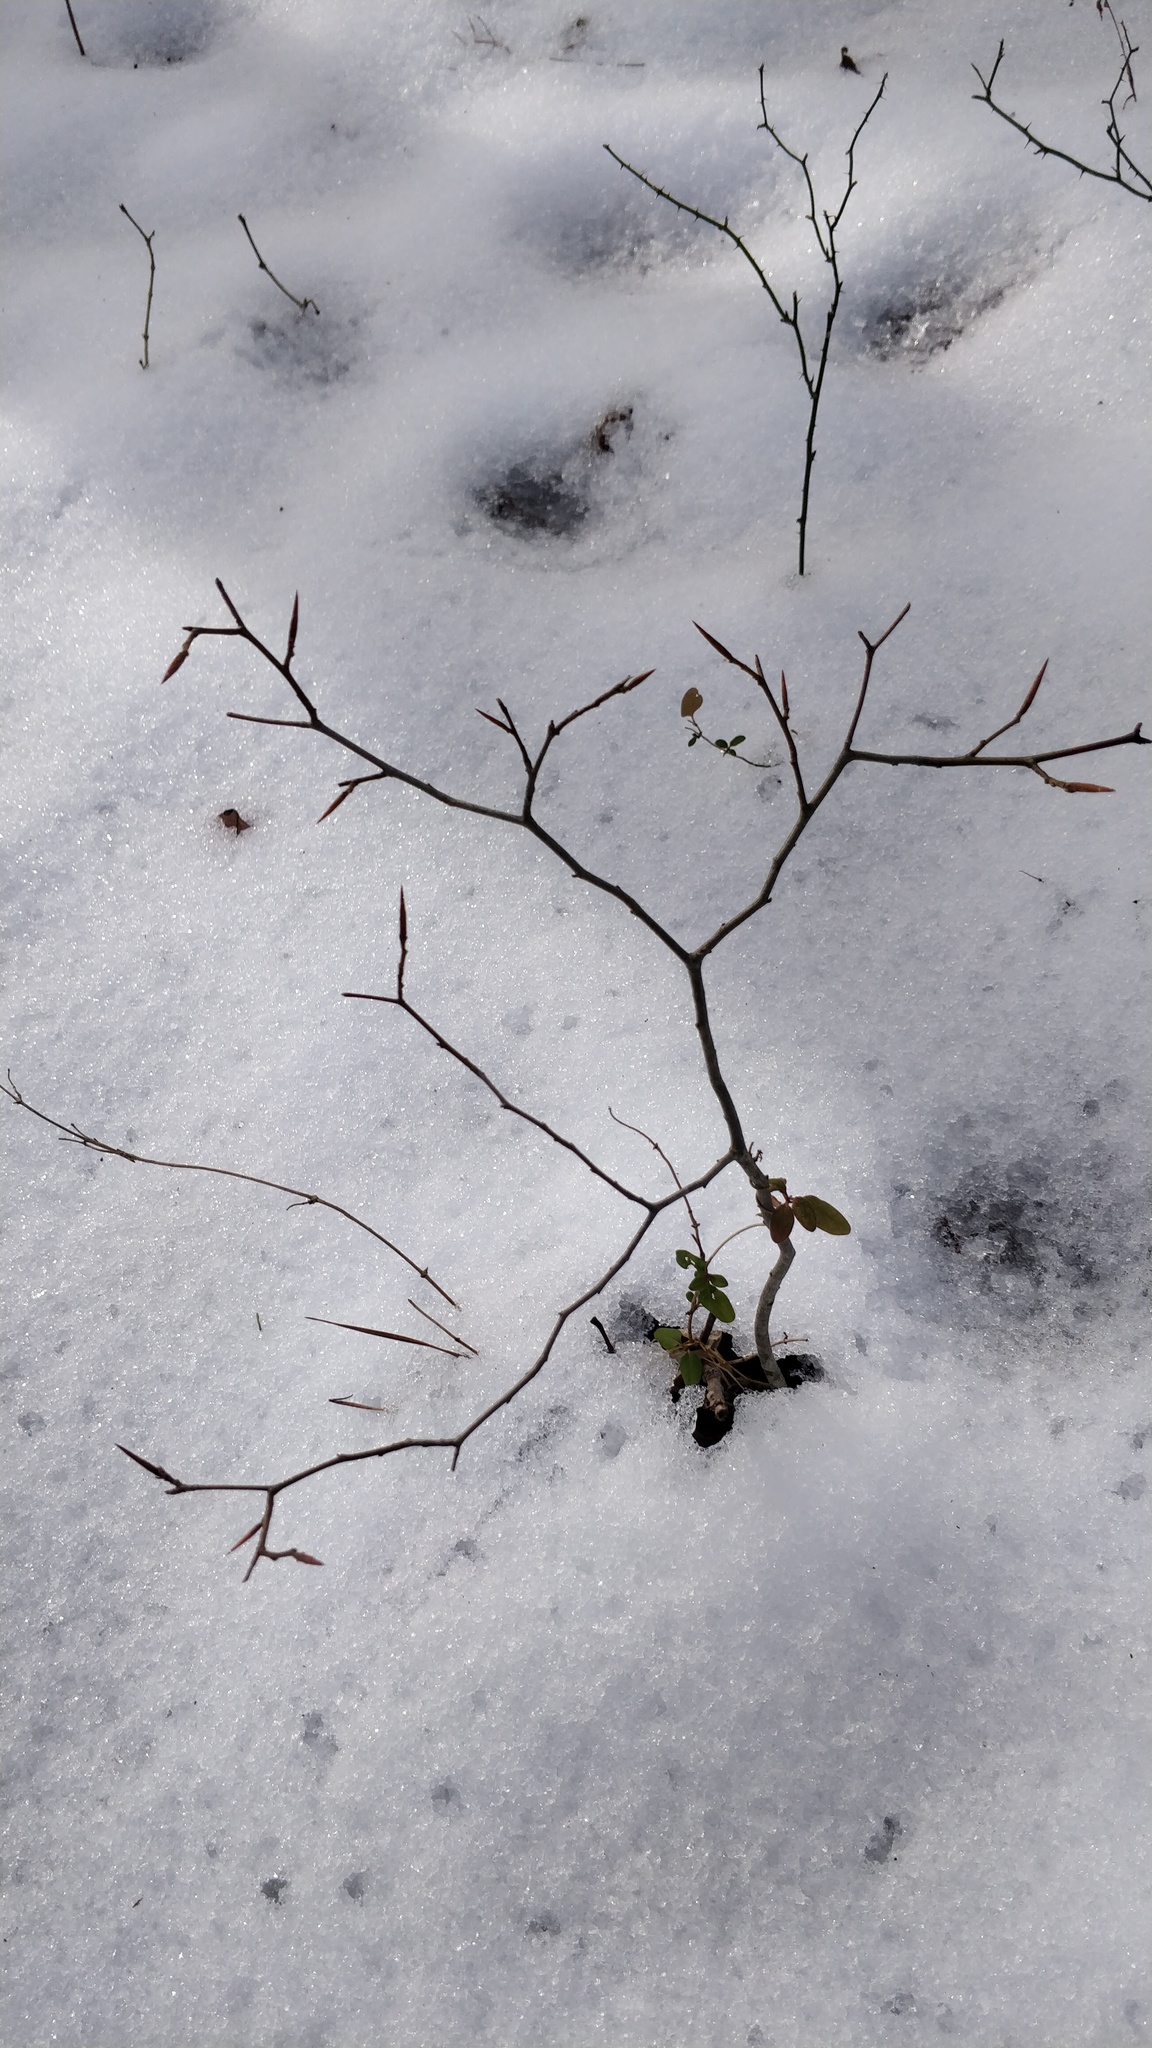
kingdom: Plantae
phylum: Tracheophyta
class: Magnoliopsida
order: Fagales
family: Fagaceae
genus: Fagus
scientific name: Fagus grandifolia
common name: American beech
